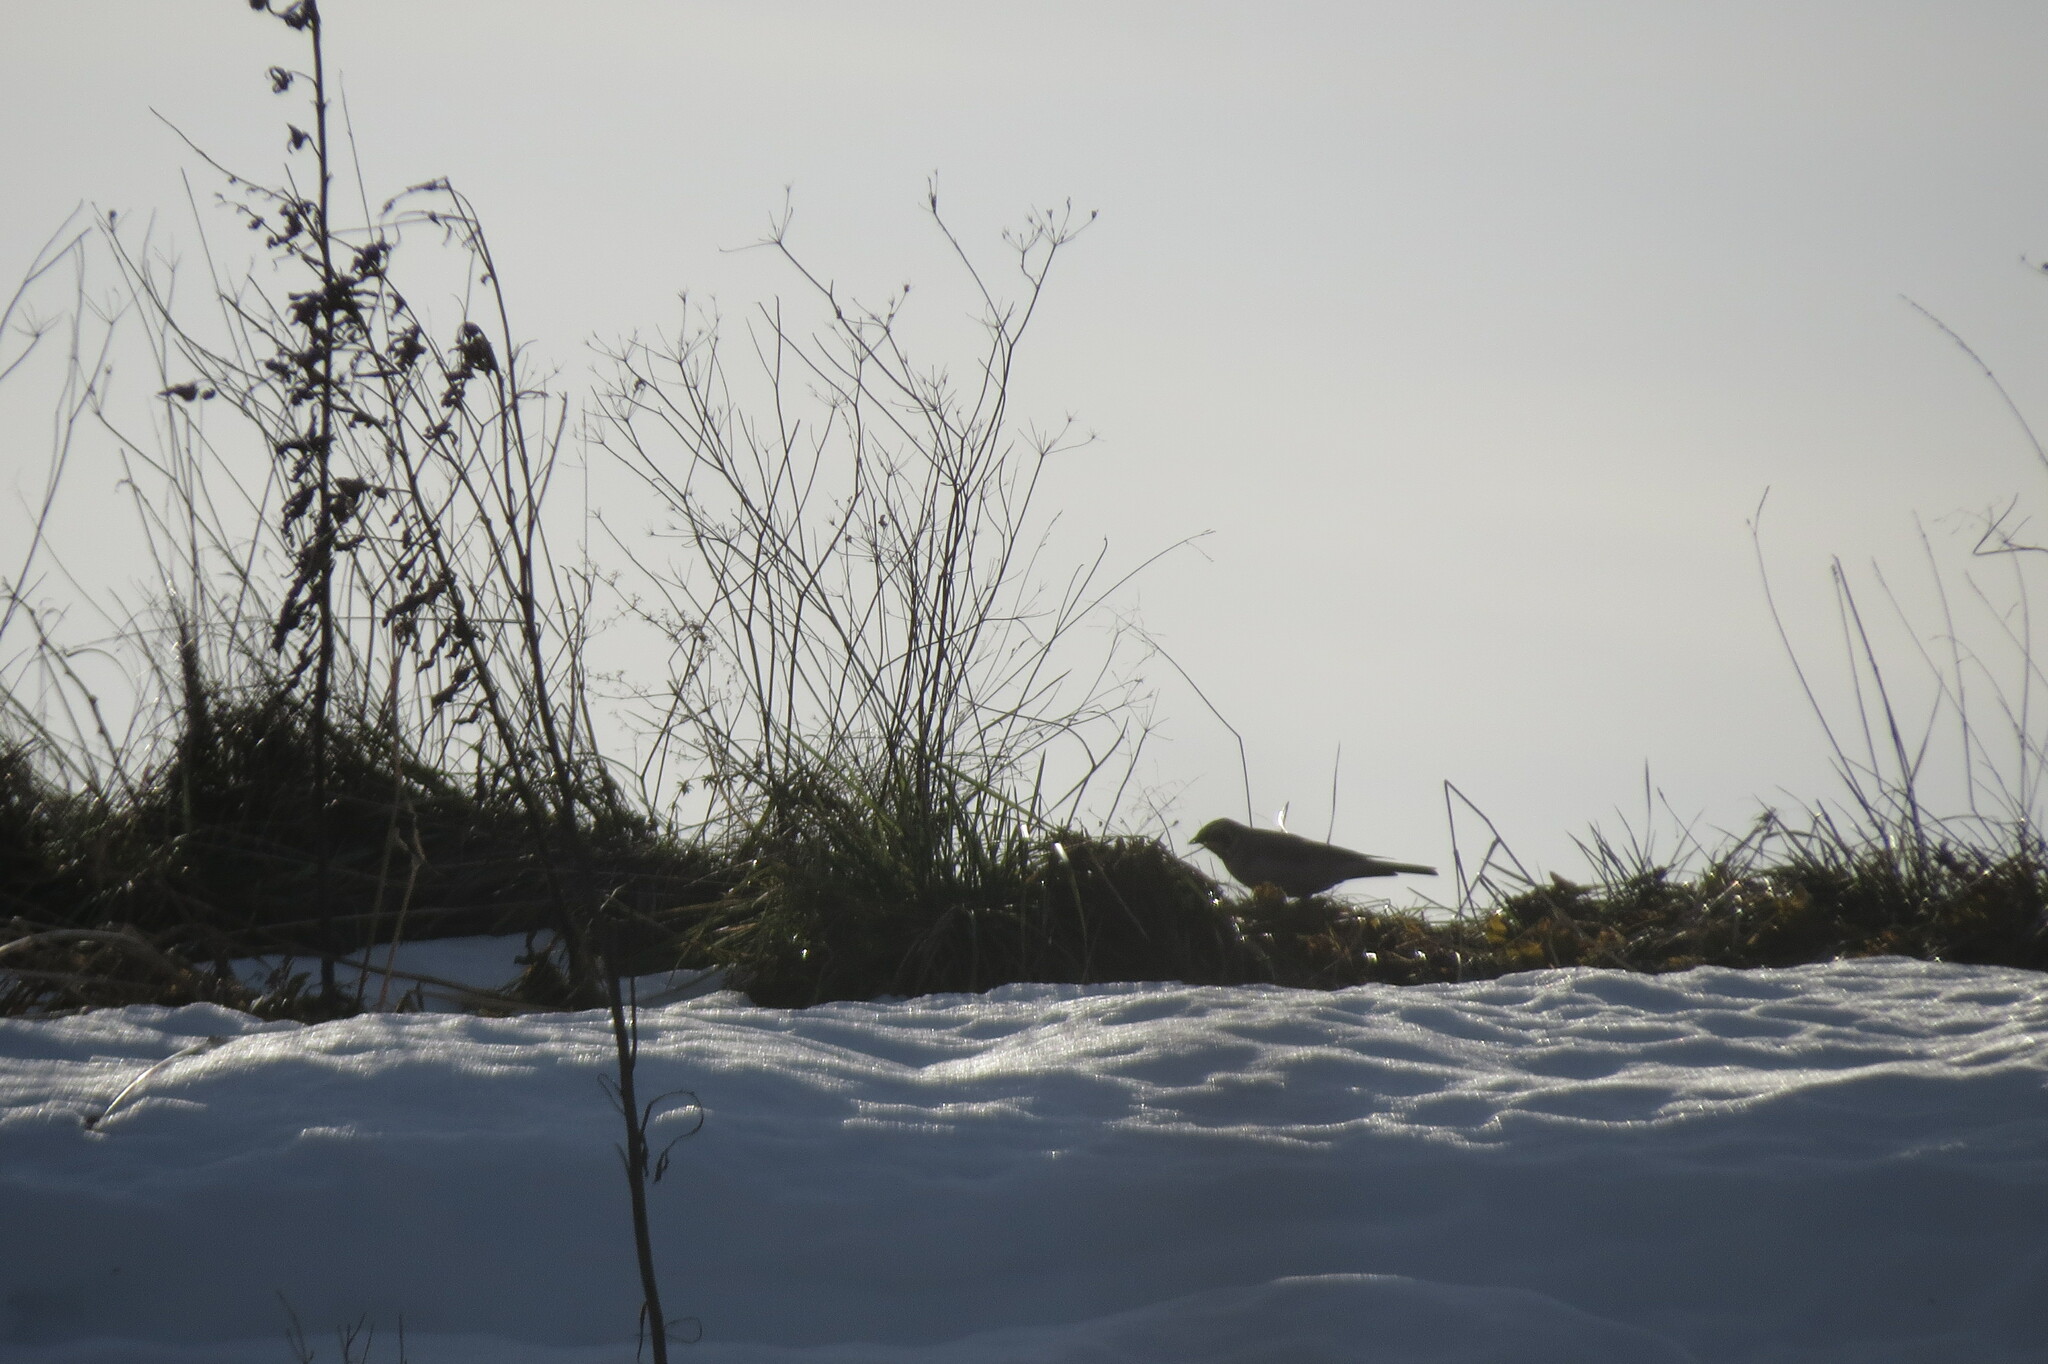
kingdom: Animalia
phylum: Chordata
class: Aves
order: Passeriformes
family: Alaudidae
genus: Eremophila
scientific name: Eremophila alpestris
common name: Horned lark
